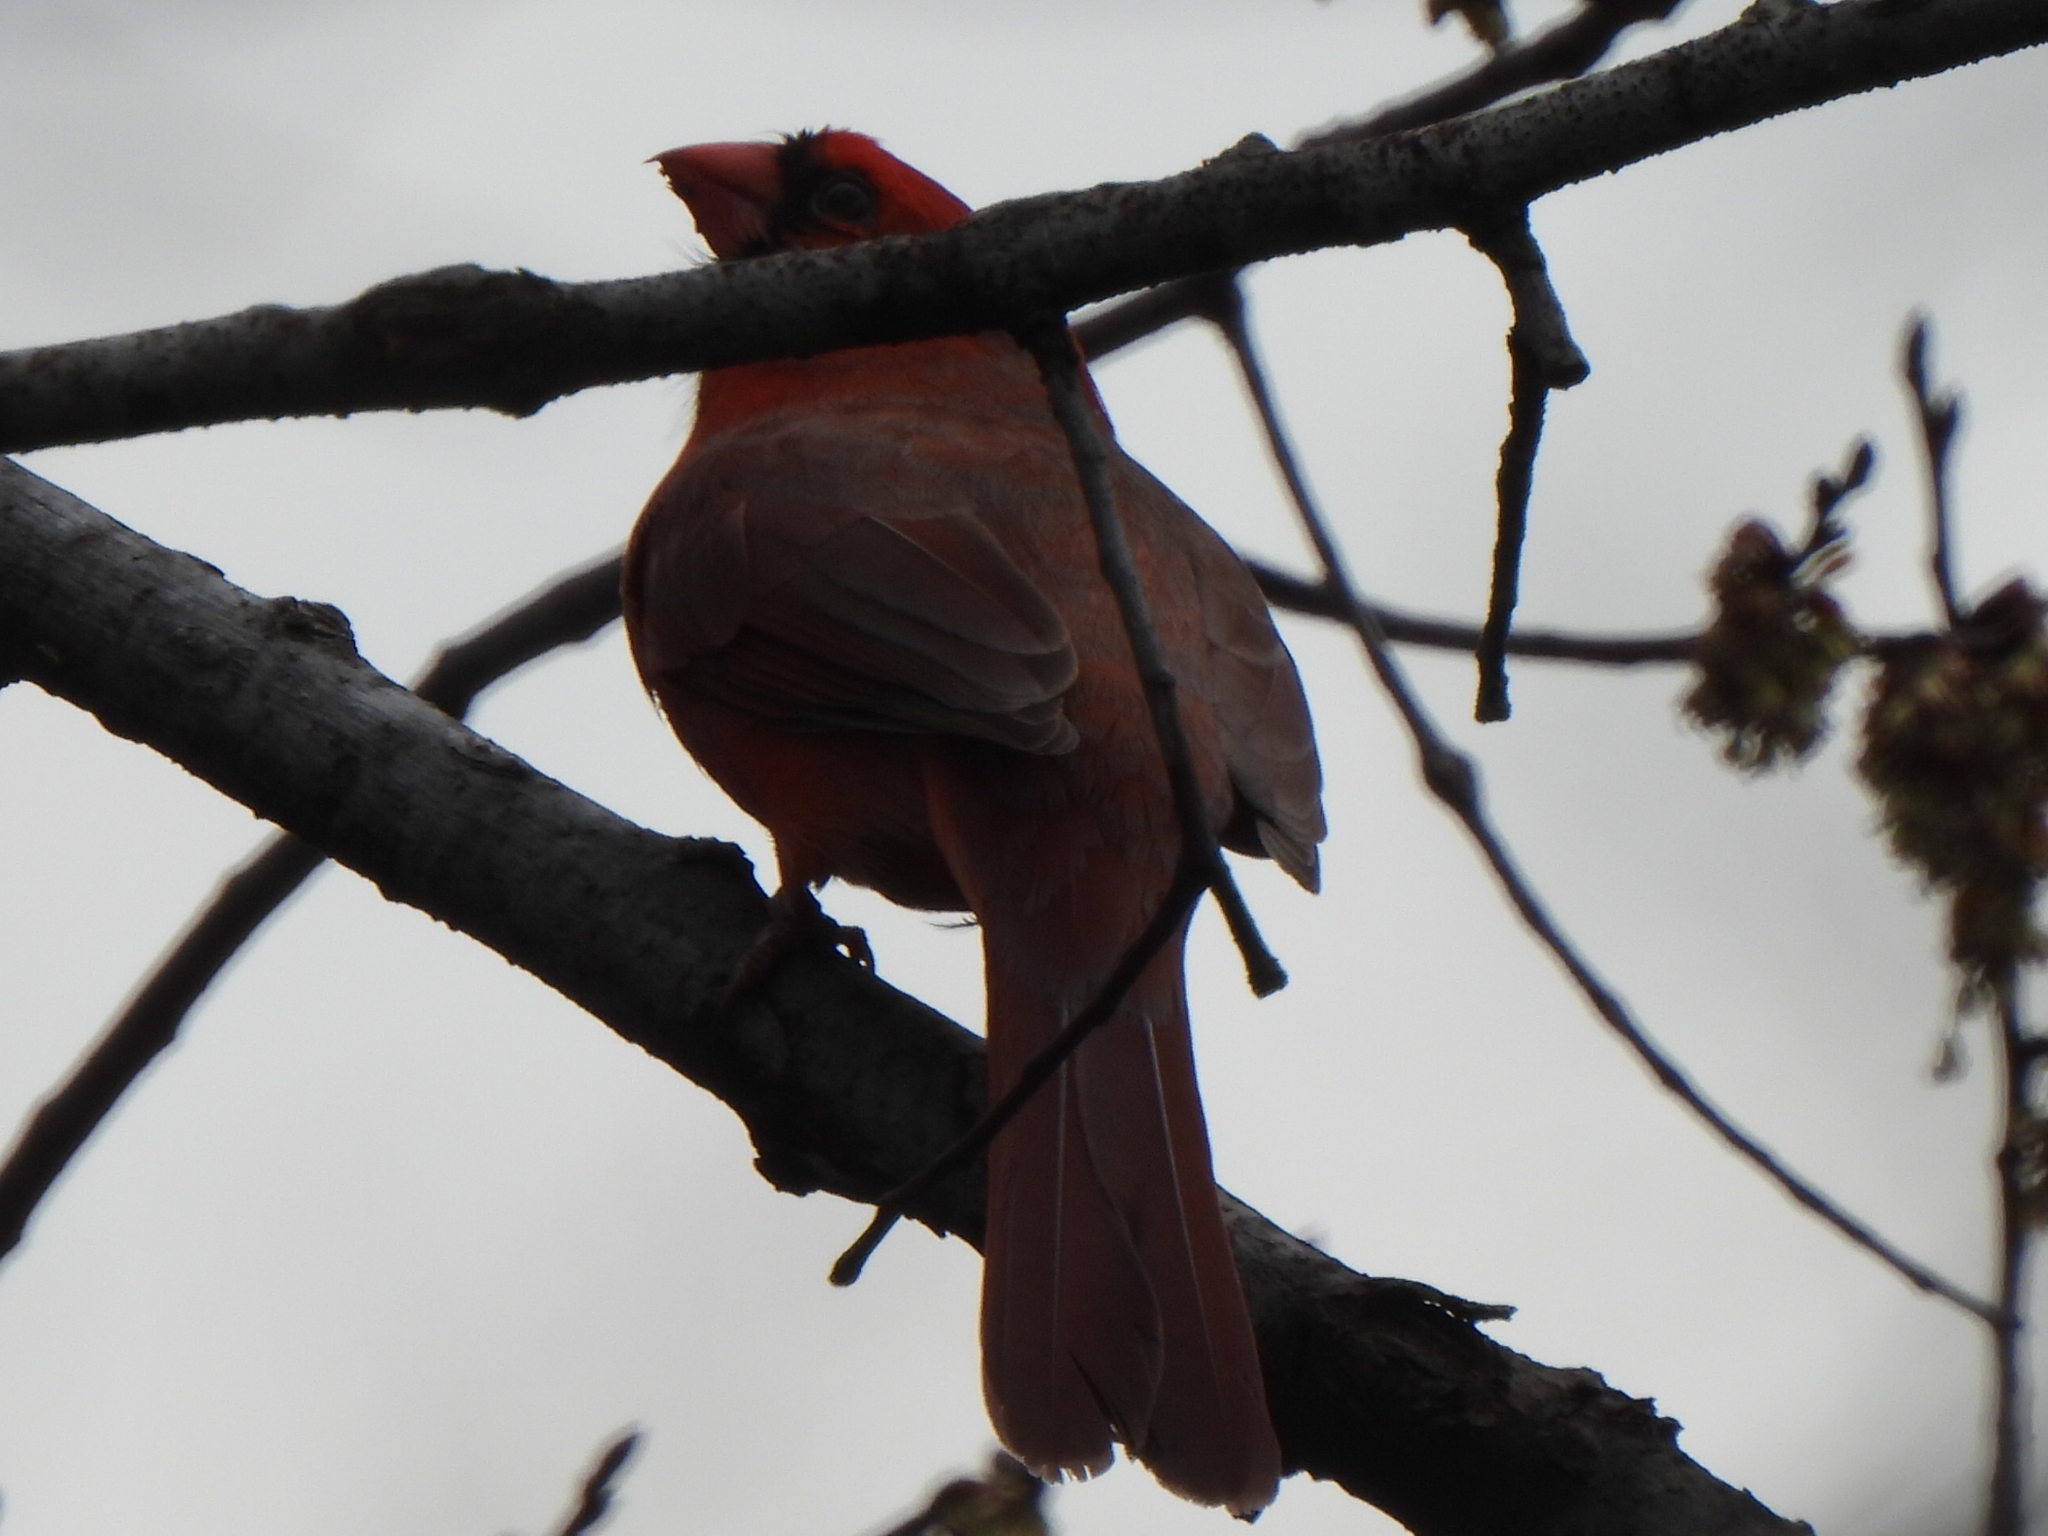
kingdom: Animalia
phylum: Chordata
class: Aves
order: Passeriformes
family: Cardinalidae
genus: Cardinalis
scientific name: Cardinalis cardinalis
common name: Northern cardinal
